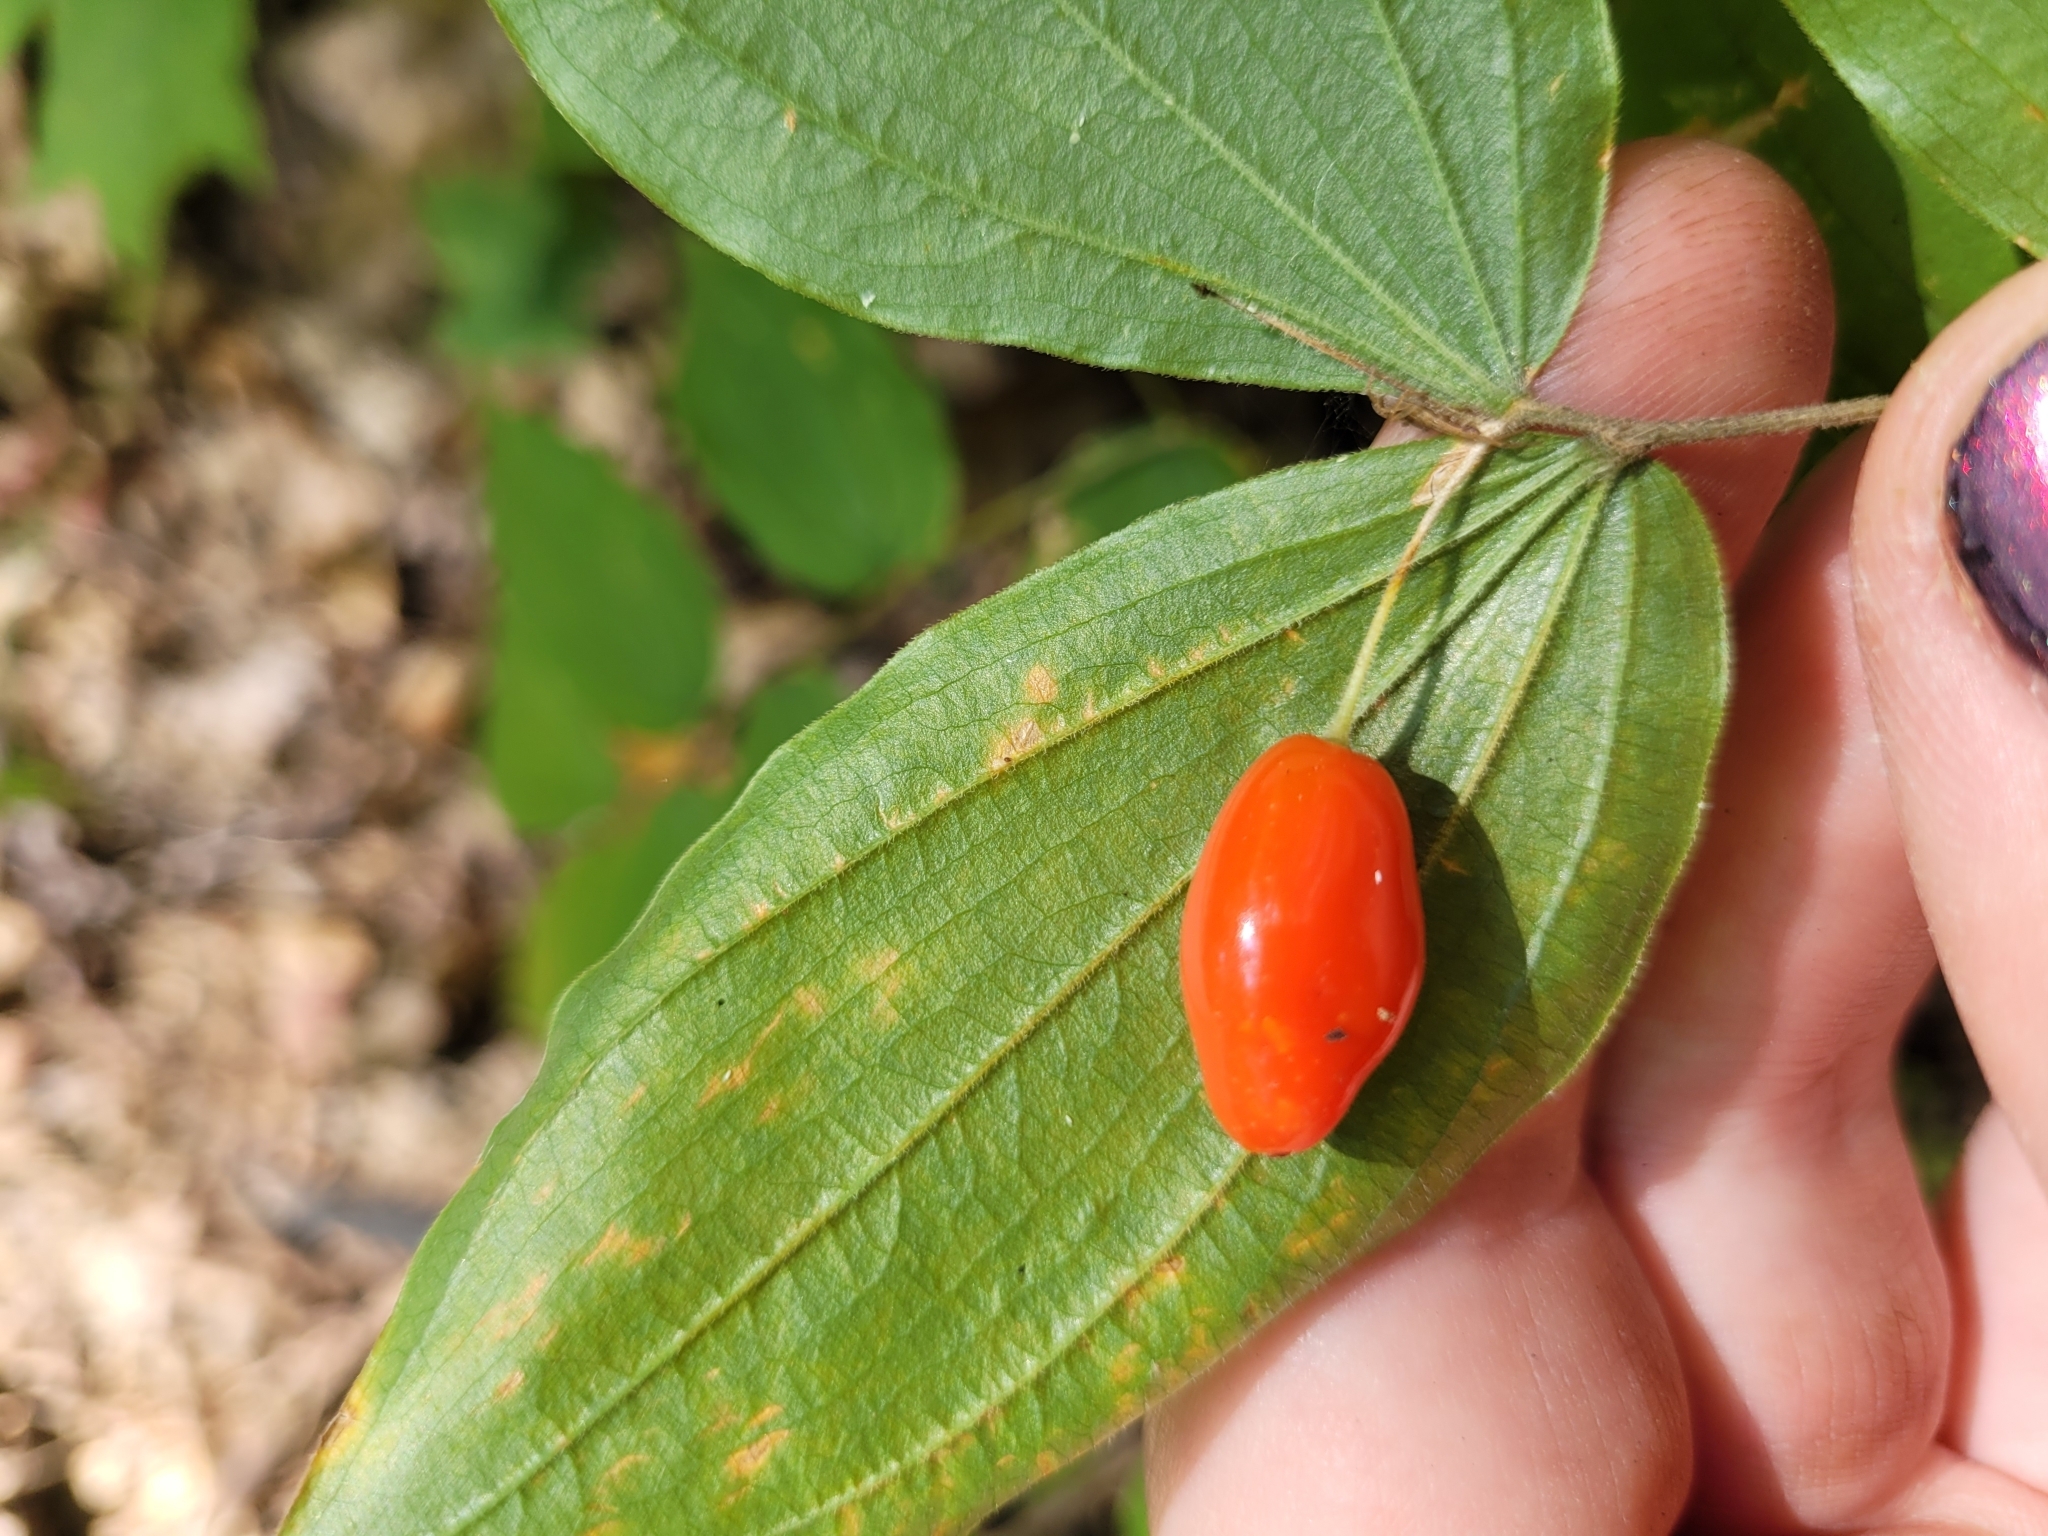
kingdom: Plantae
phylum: Tracheophyta
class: Liliopsida
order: Liliales
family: Liliaceae
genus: Prosartes
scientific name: Prosartes lanuginosa
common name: Hairy mandarin
